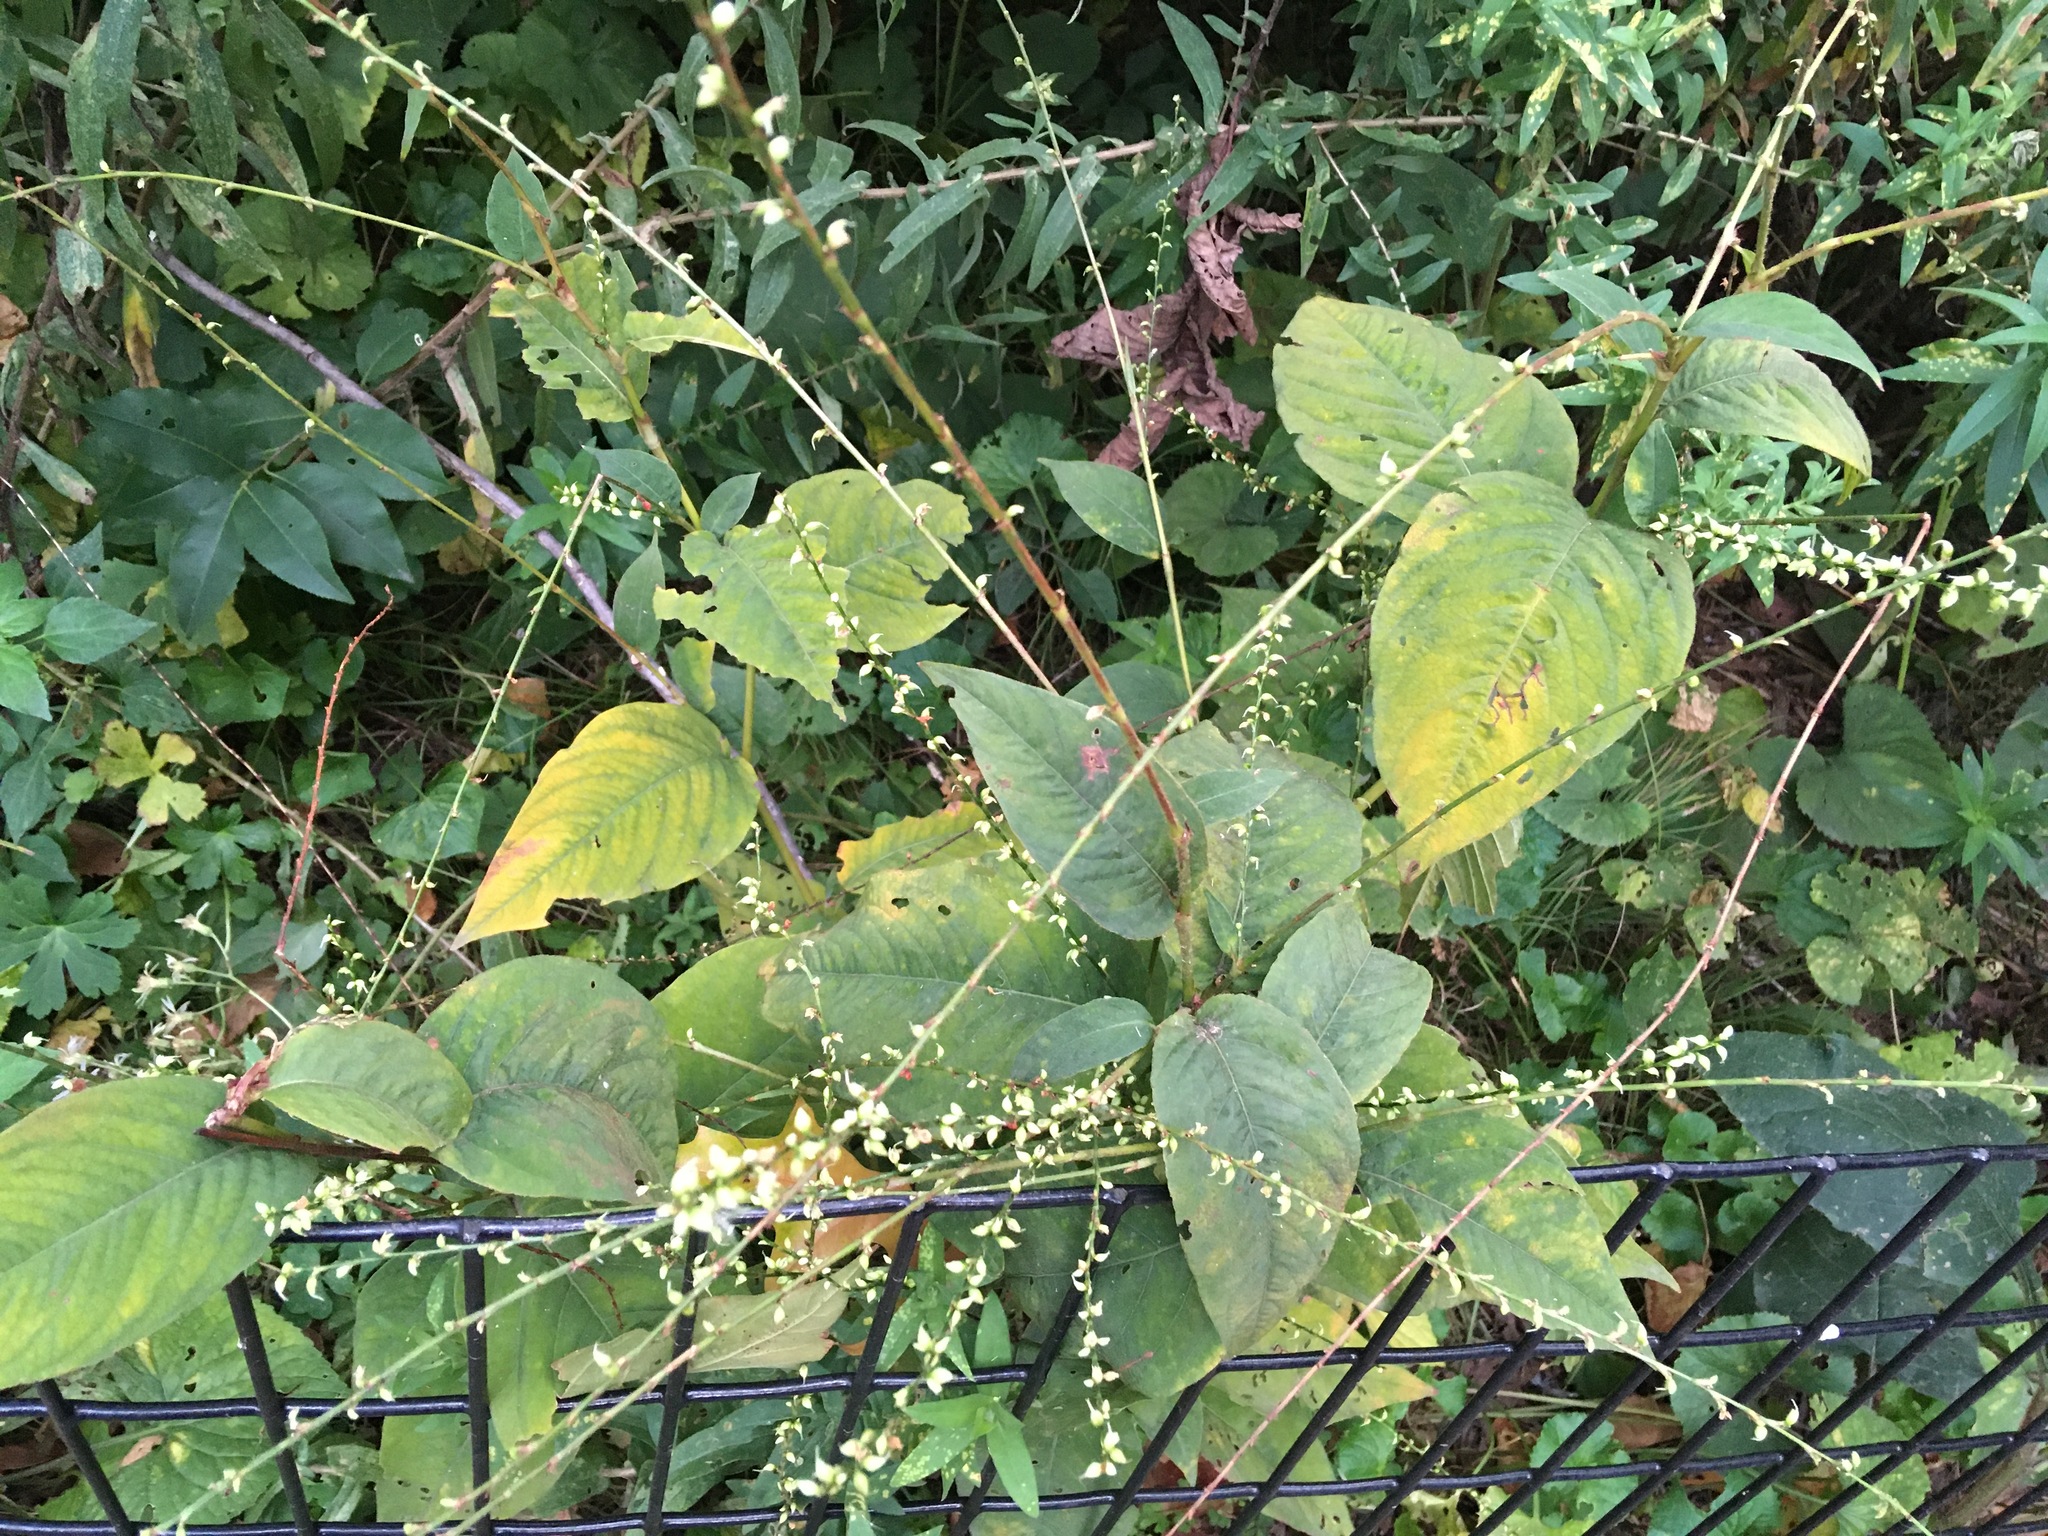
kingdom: Plantae
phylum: Tracheophyta
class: Magnoliopsida
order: Caryophyllales
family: Polygonaceae
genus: Persicaria
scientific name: Persicaria virginiana
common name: Jumpseed
